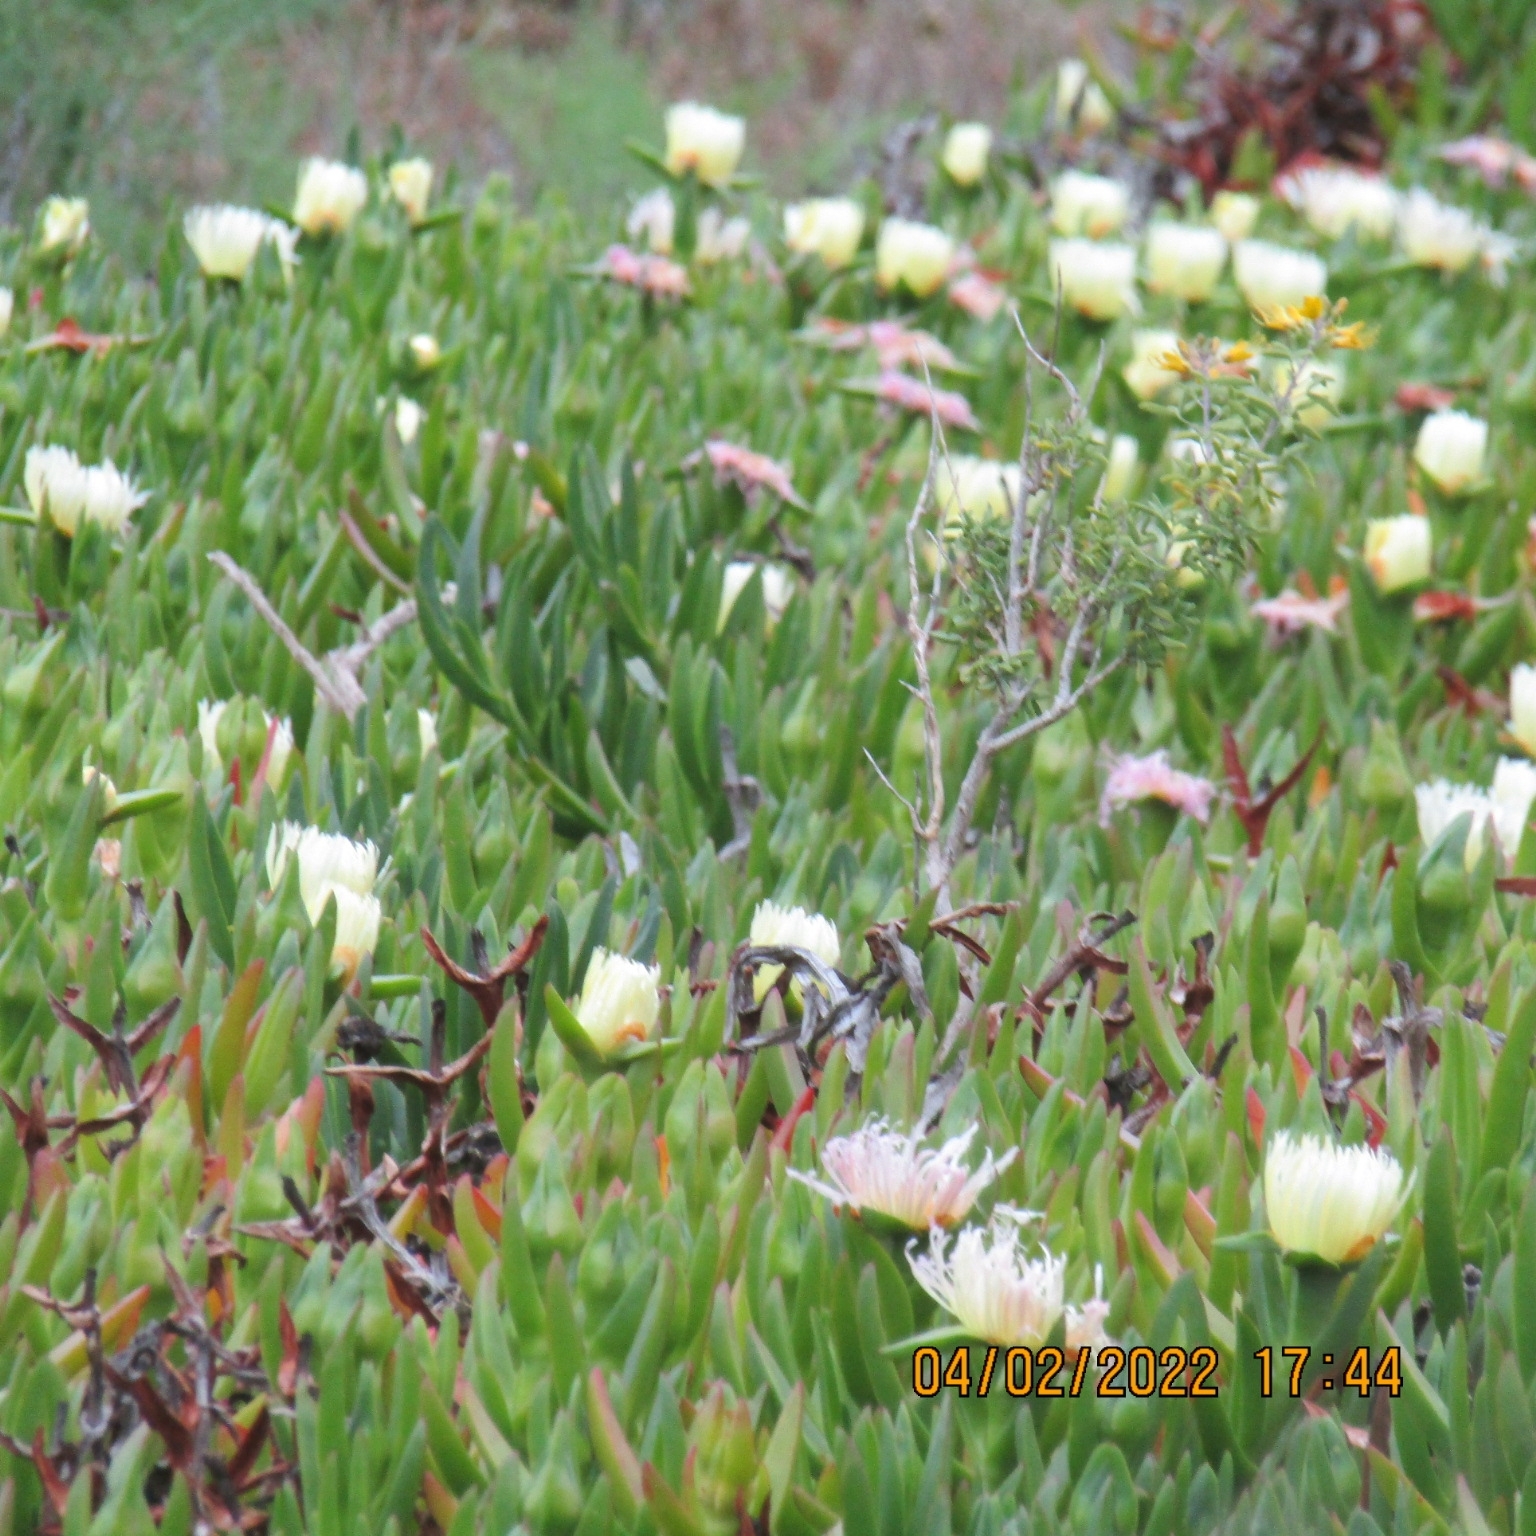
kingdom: Plantae
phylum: Tracheophyta
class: Magnoliopsida
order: Caryophyllales
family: Aizoaceae
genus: Carpobrotus
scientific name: Carpobrotus edulis
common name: Hottentot-fig
